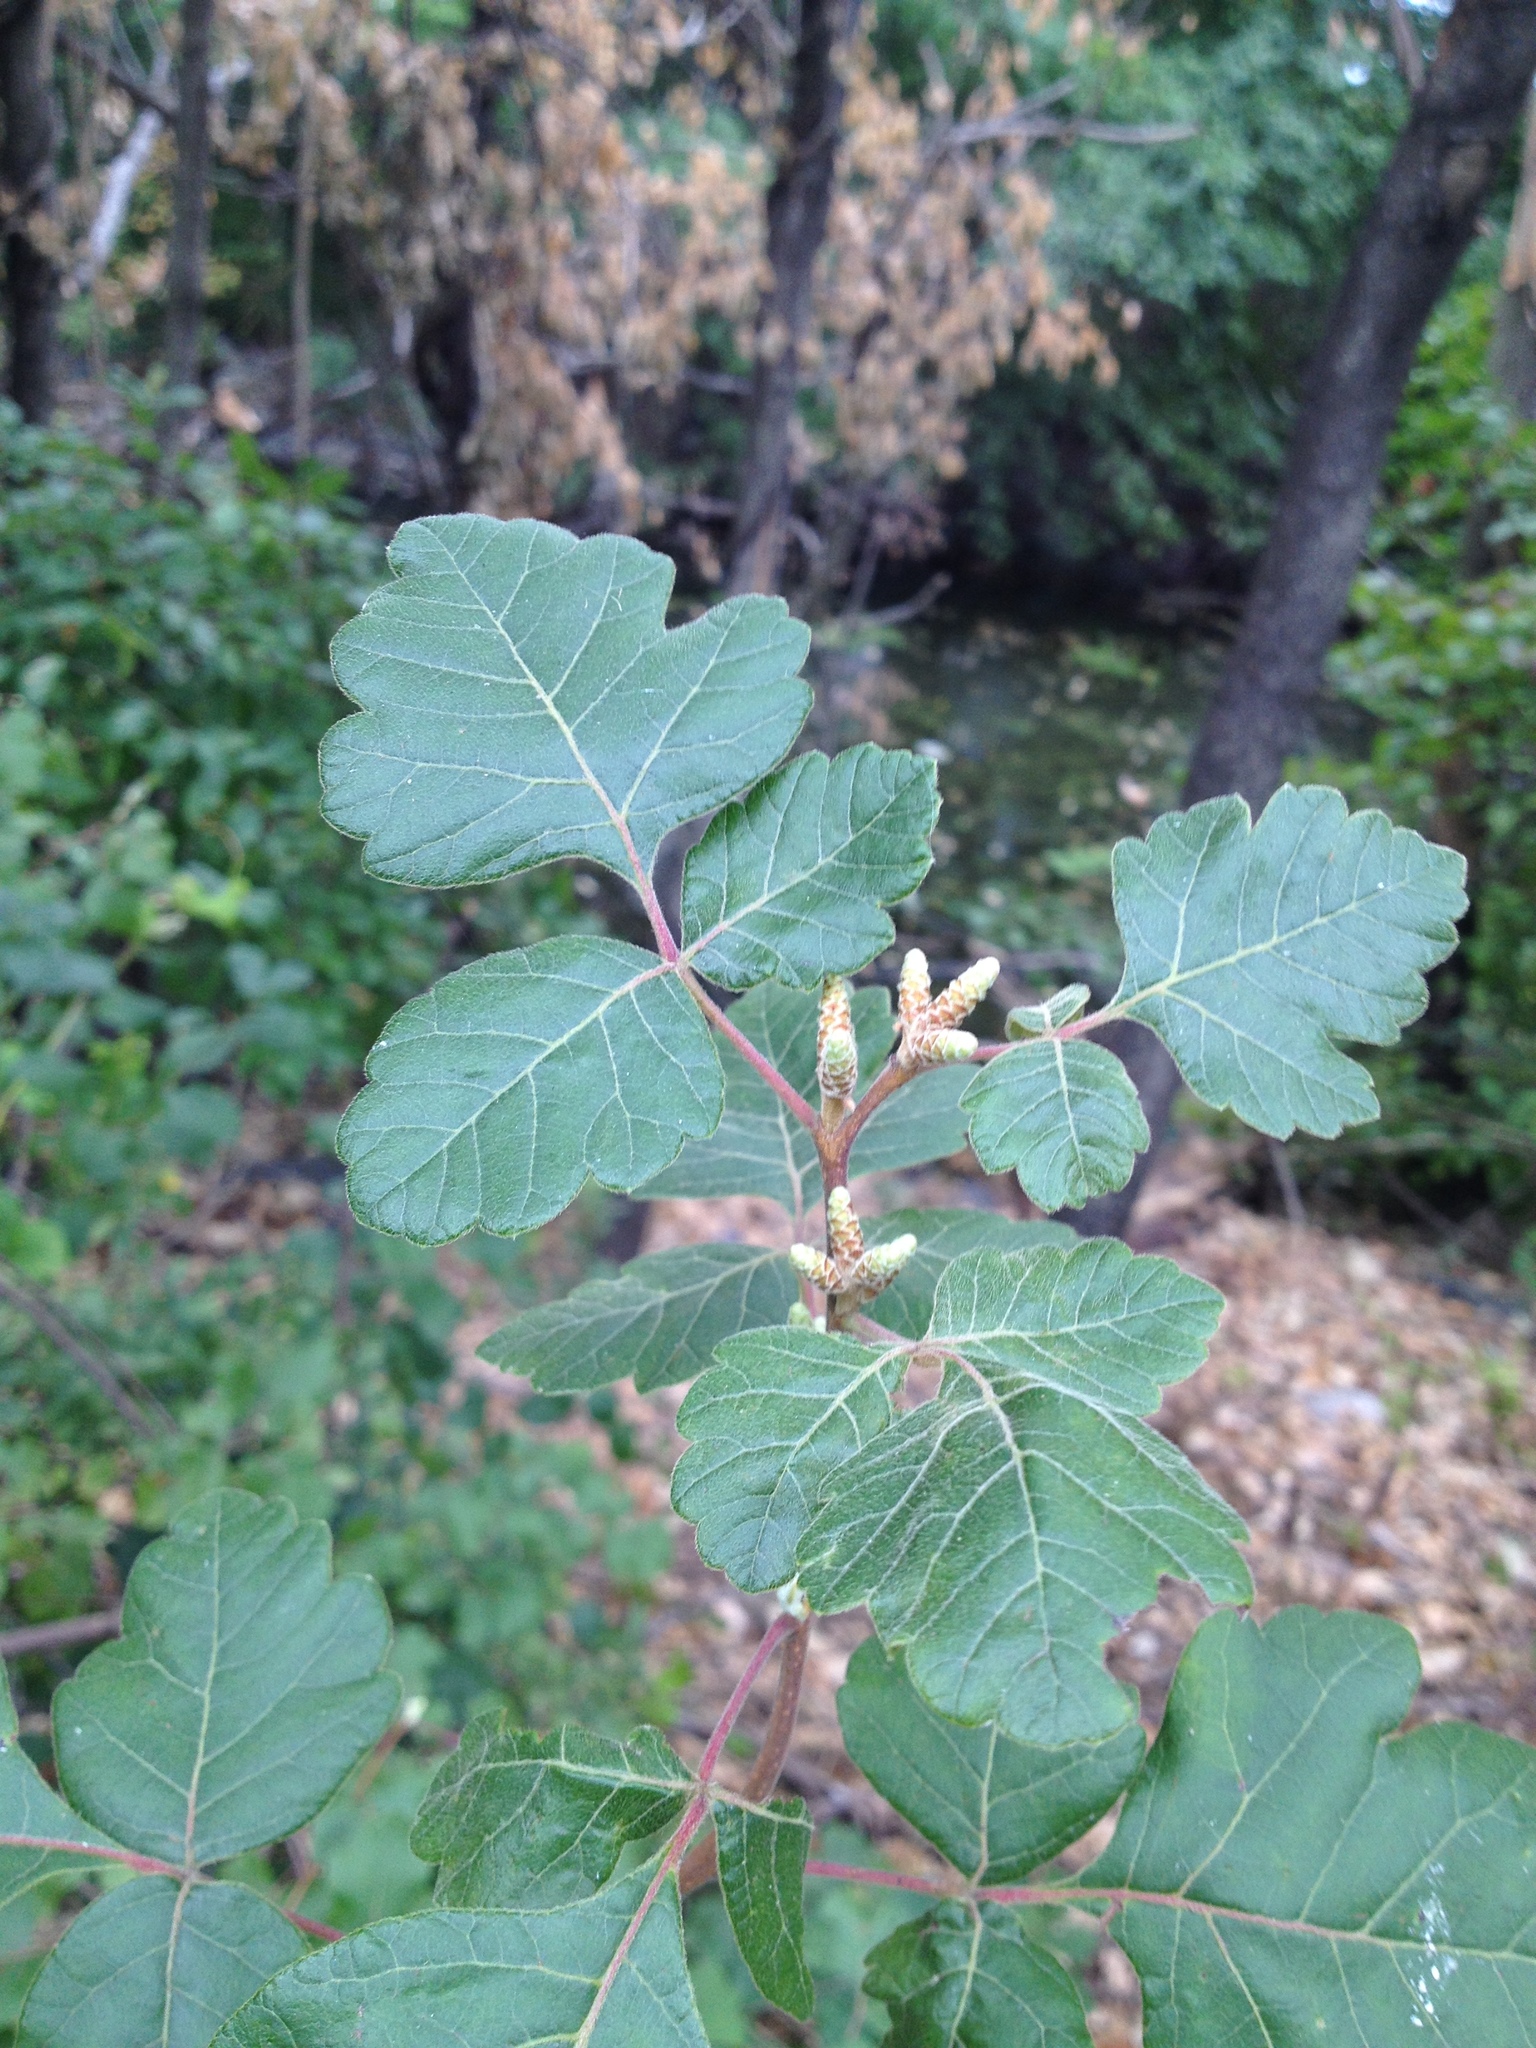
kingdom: Plantae
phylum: Tracheophyta
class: Magnoliopsida
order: Sapindales
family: Anacardiaceae
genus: Rhus
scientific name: Rhus aromatica
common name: Aromatic sumac
